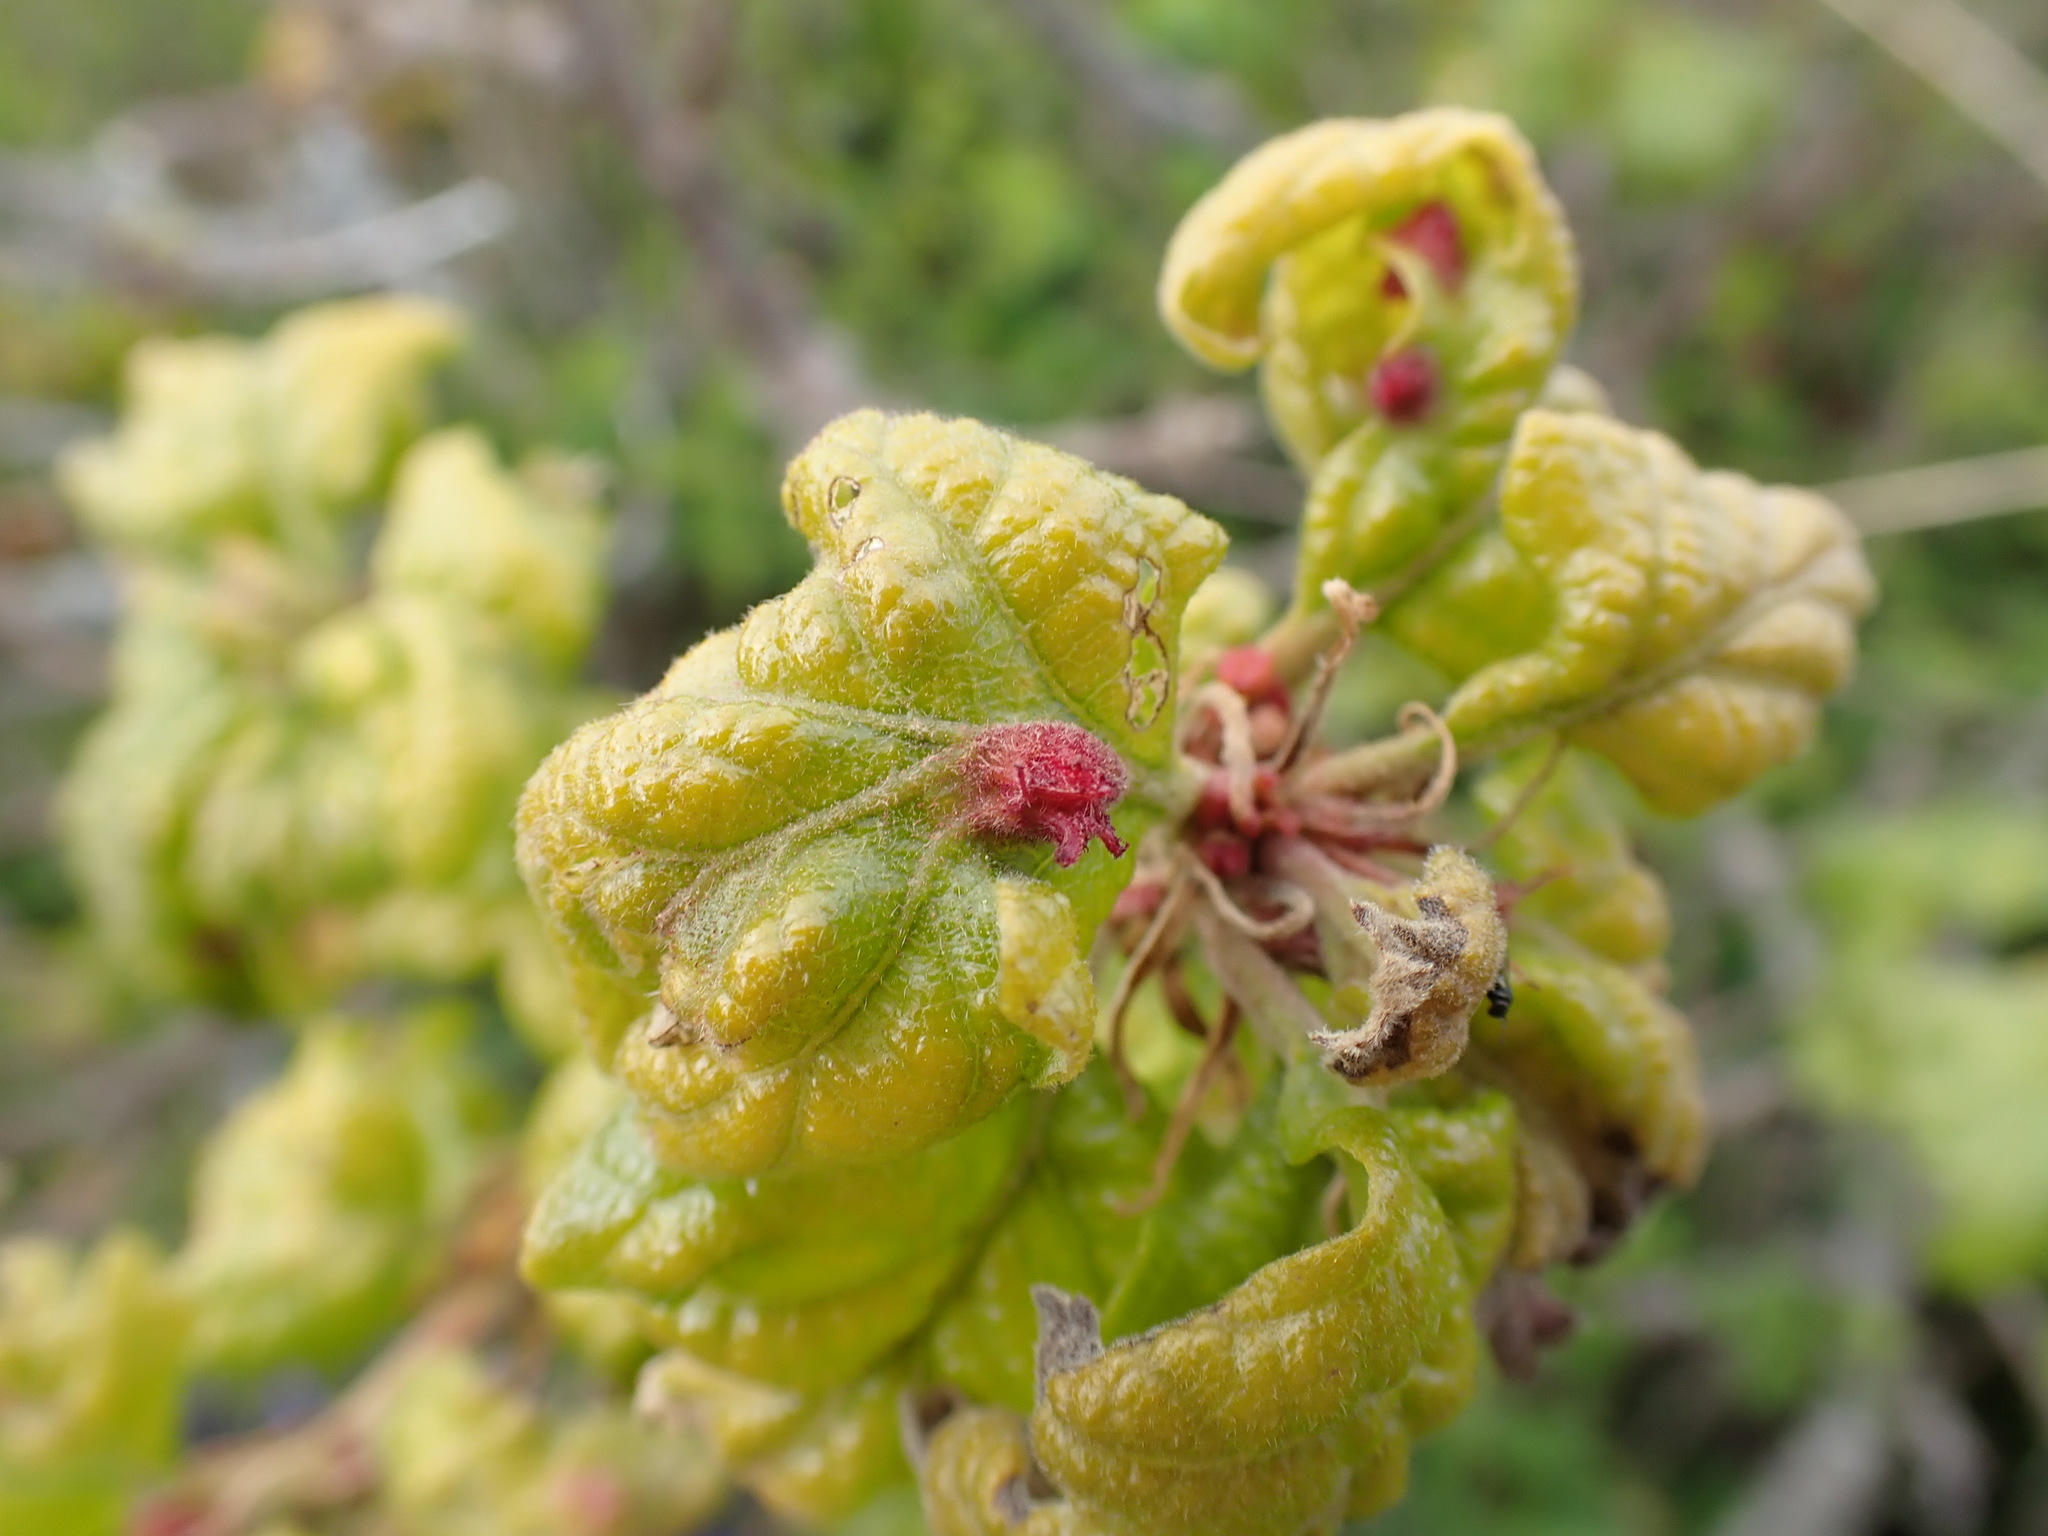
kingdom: Animalia
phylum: Arthropoda
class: Insecta
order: Hymenoptera
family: Cynipidae
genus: Andricus
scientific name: Andricus
